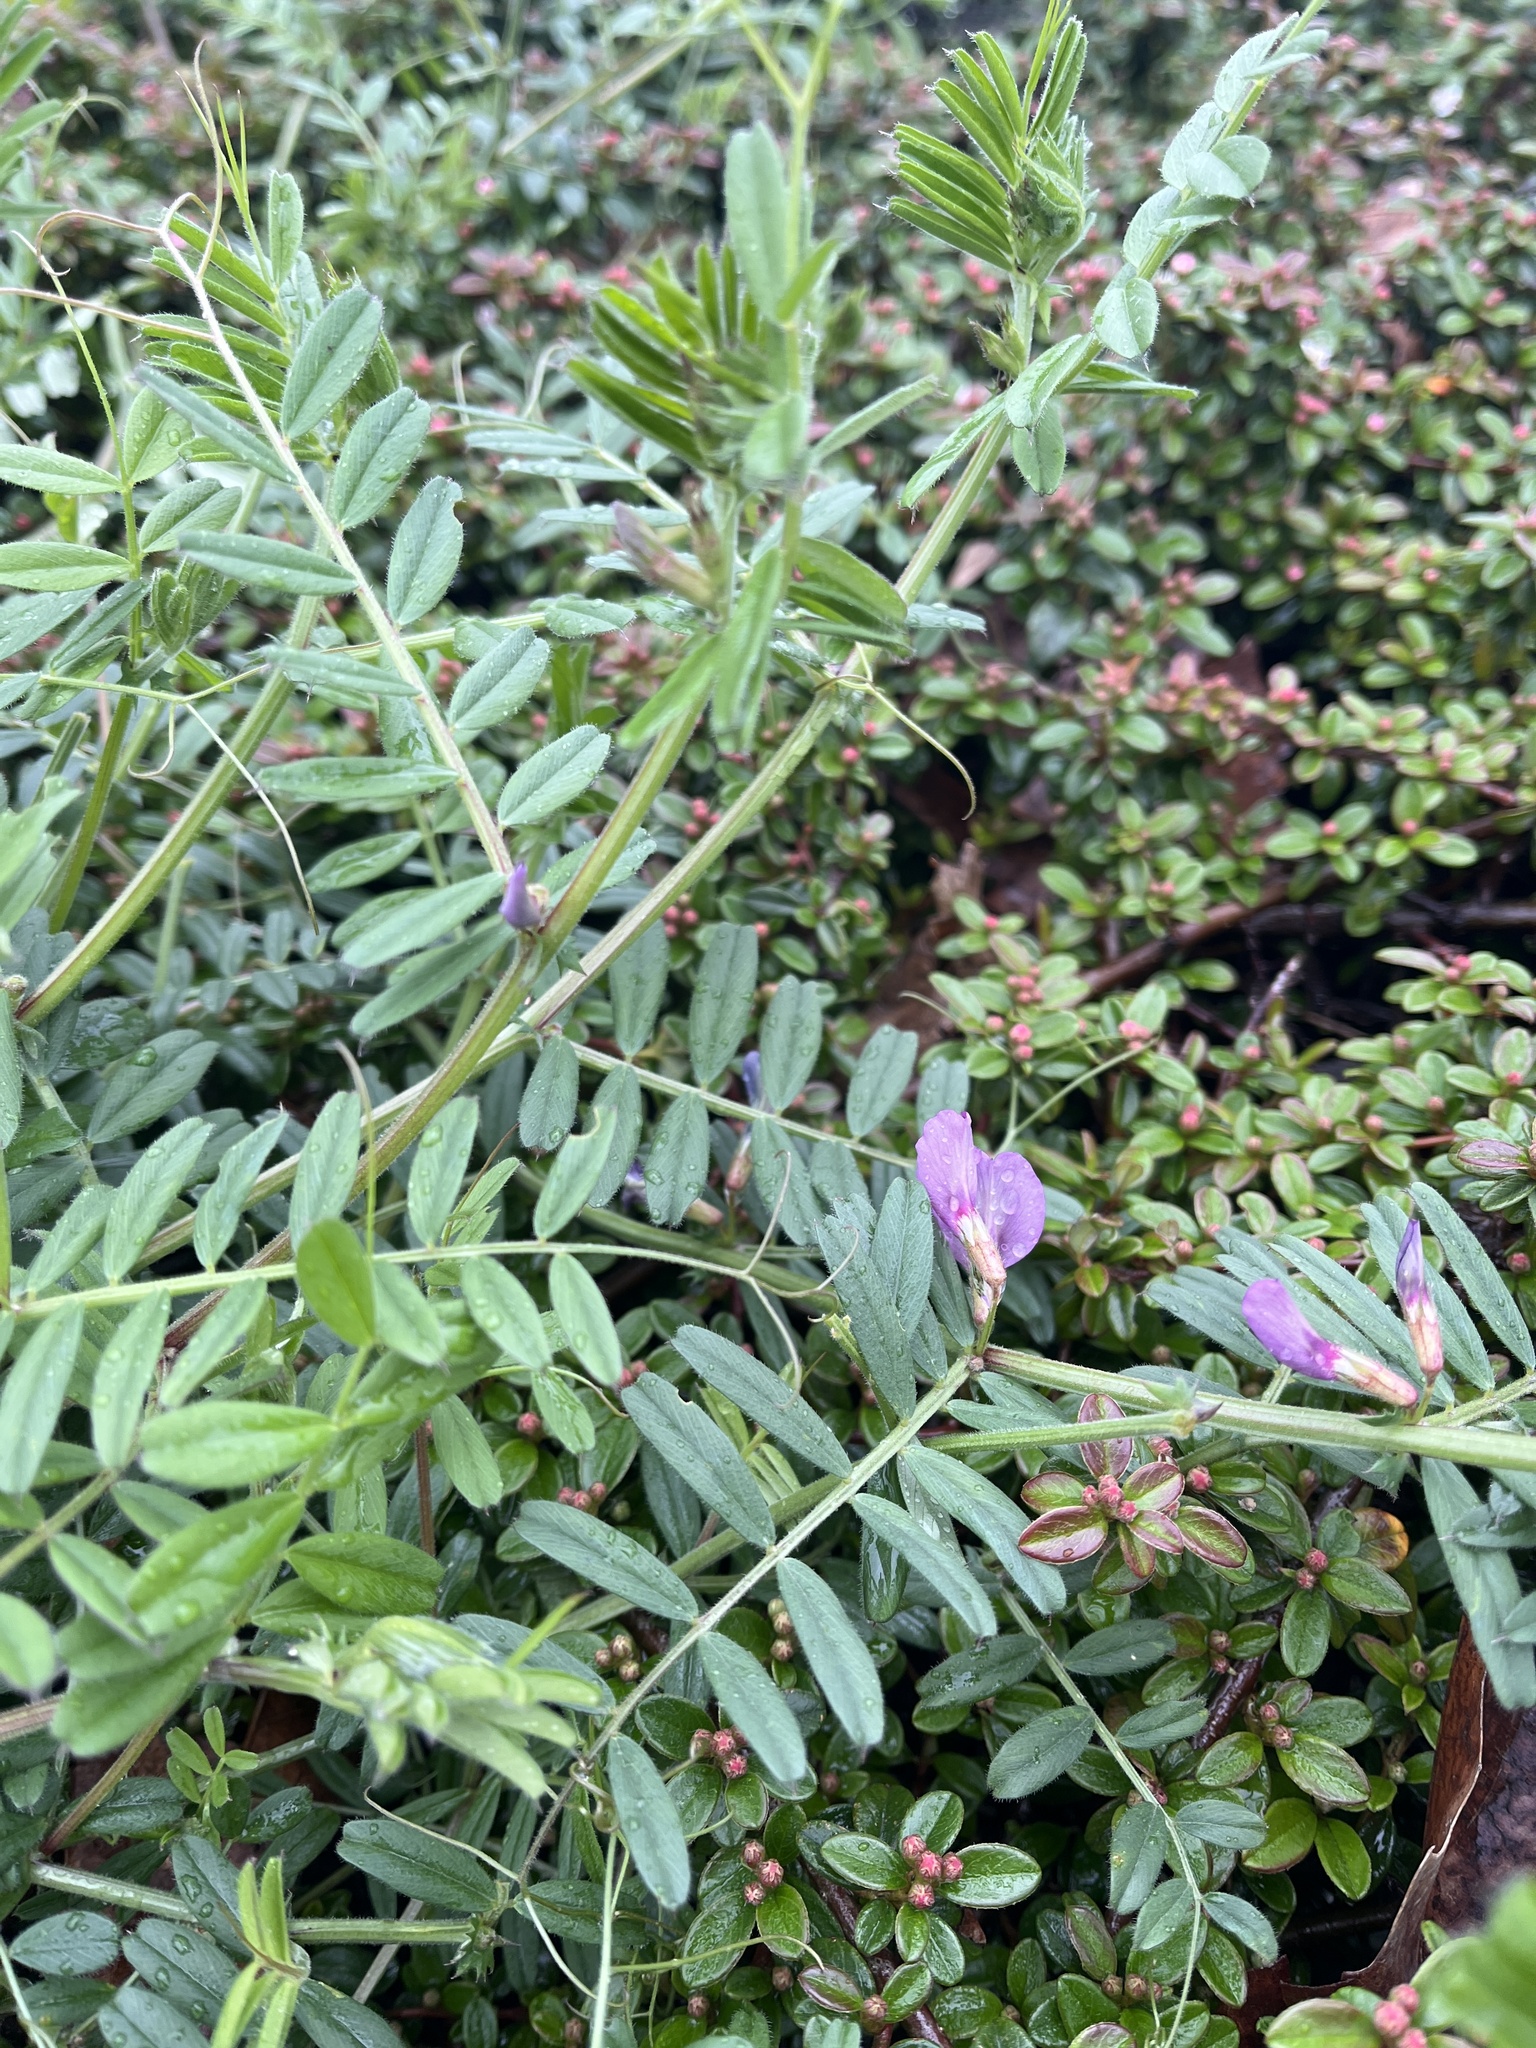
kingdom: Plantae
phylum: Tracheophyta
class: Magnoliopsida
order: Fabales
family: Fabaceae
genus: Vicia
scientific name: Vicia sativa
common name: Garden vetch
